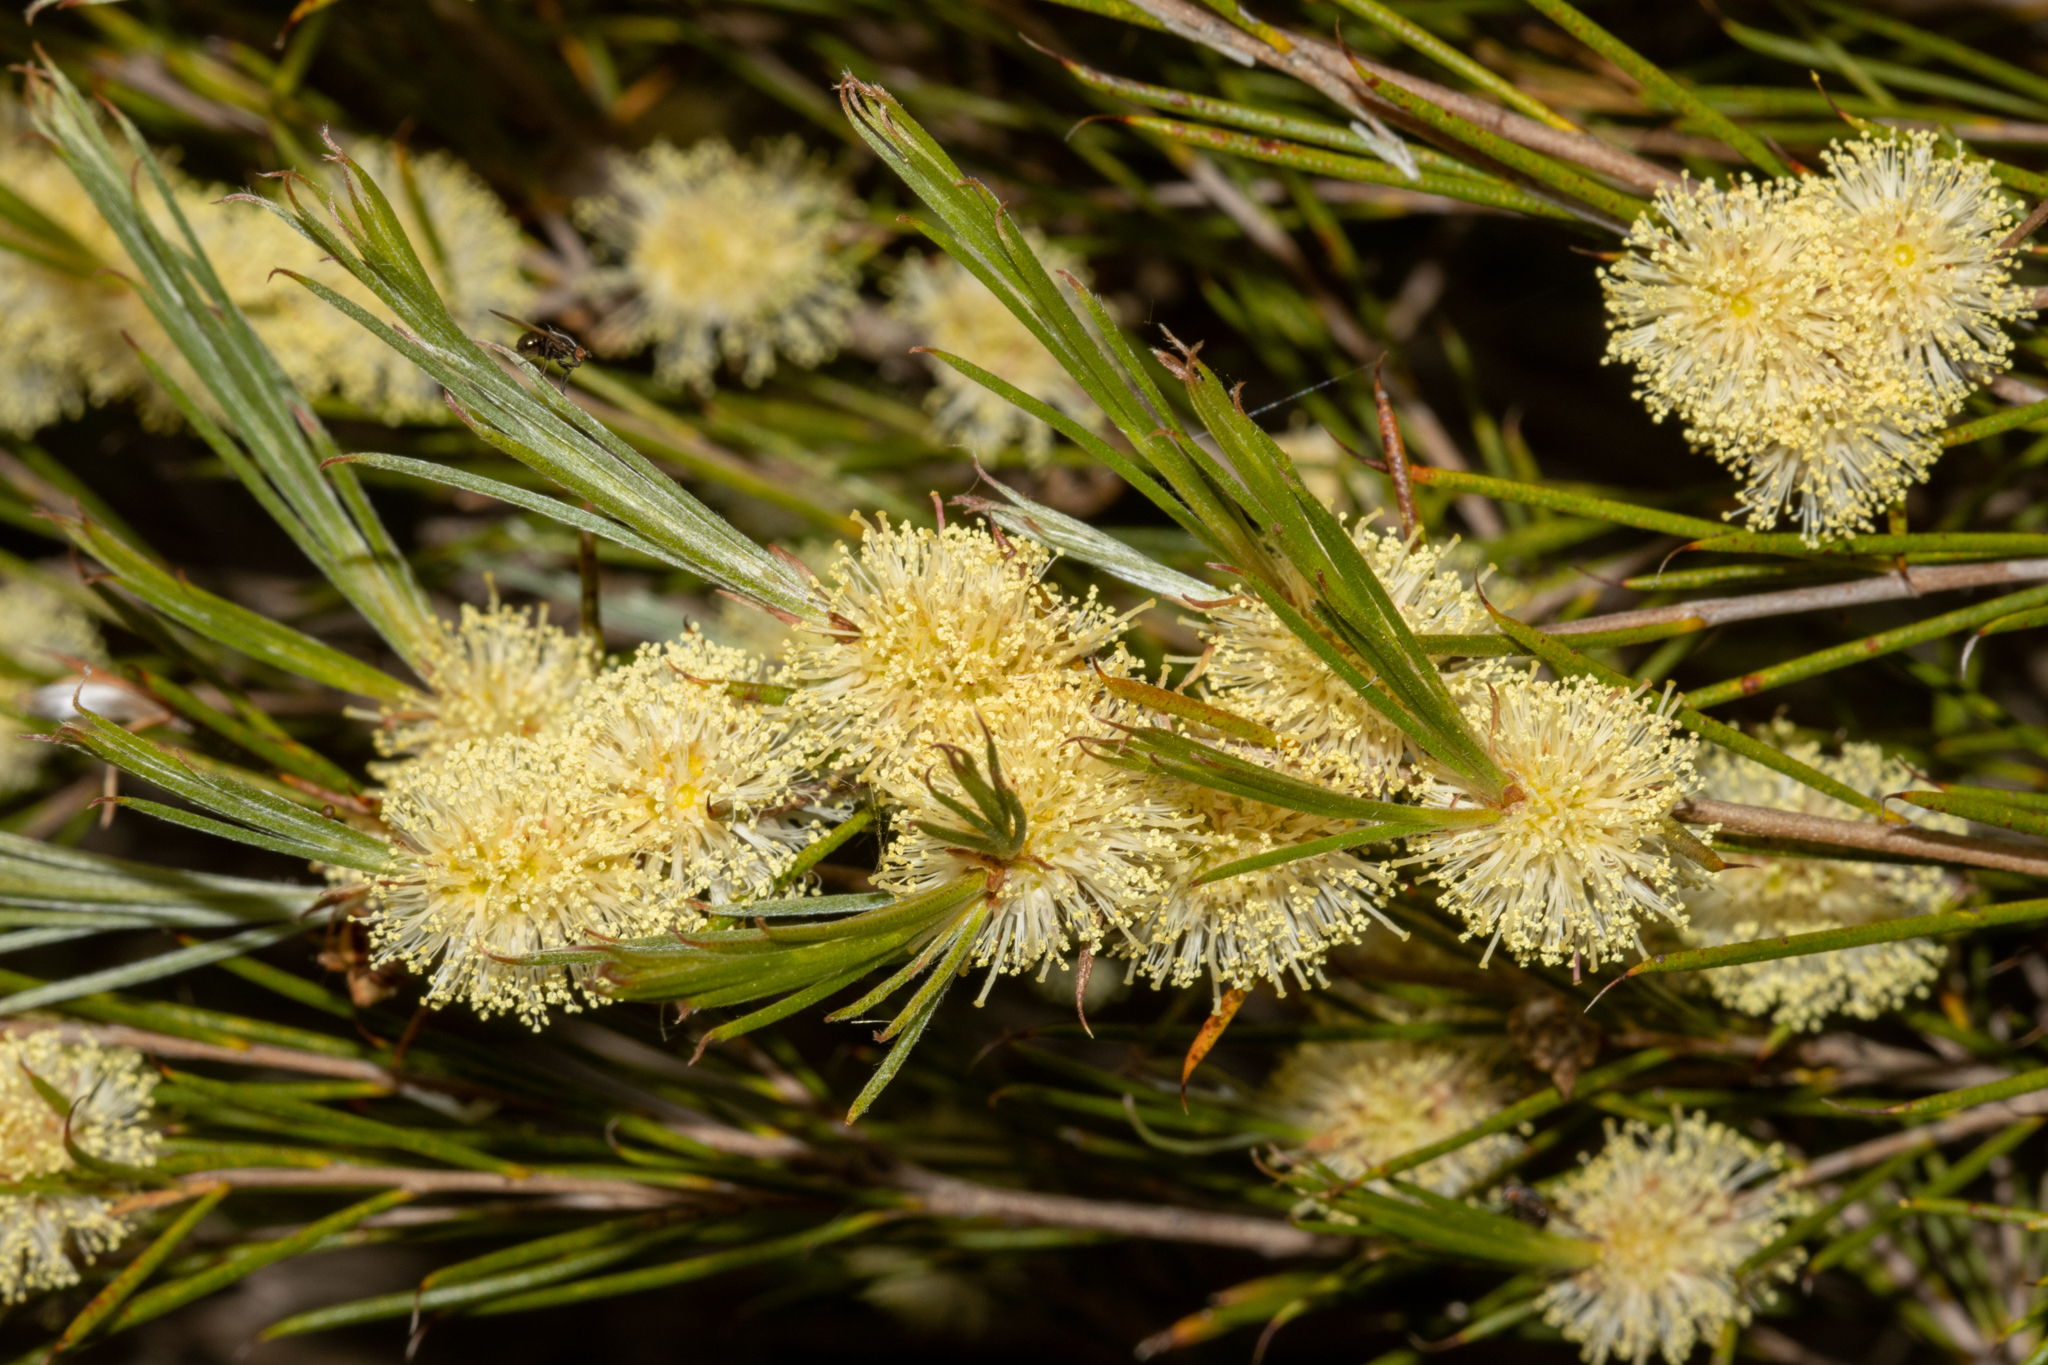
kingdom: Plantae
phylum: Tracheophyta
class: Magnoliopsida
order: Myrtales
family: Myrtaceae
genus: Melaleuca
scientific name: Melaleuca uncinata
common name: Broom honey myrtle
